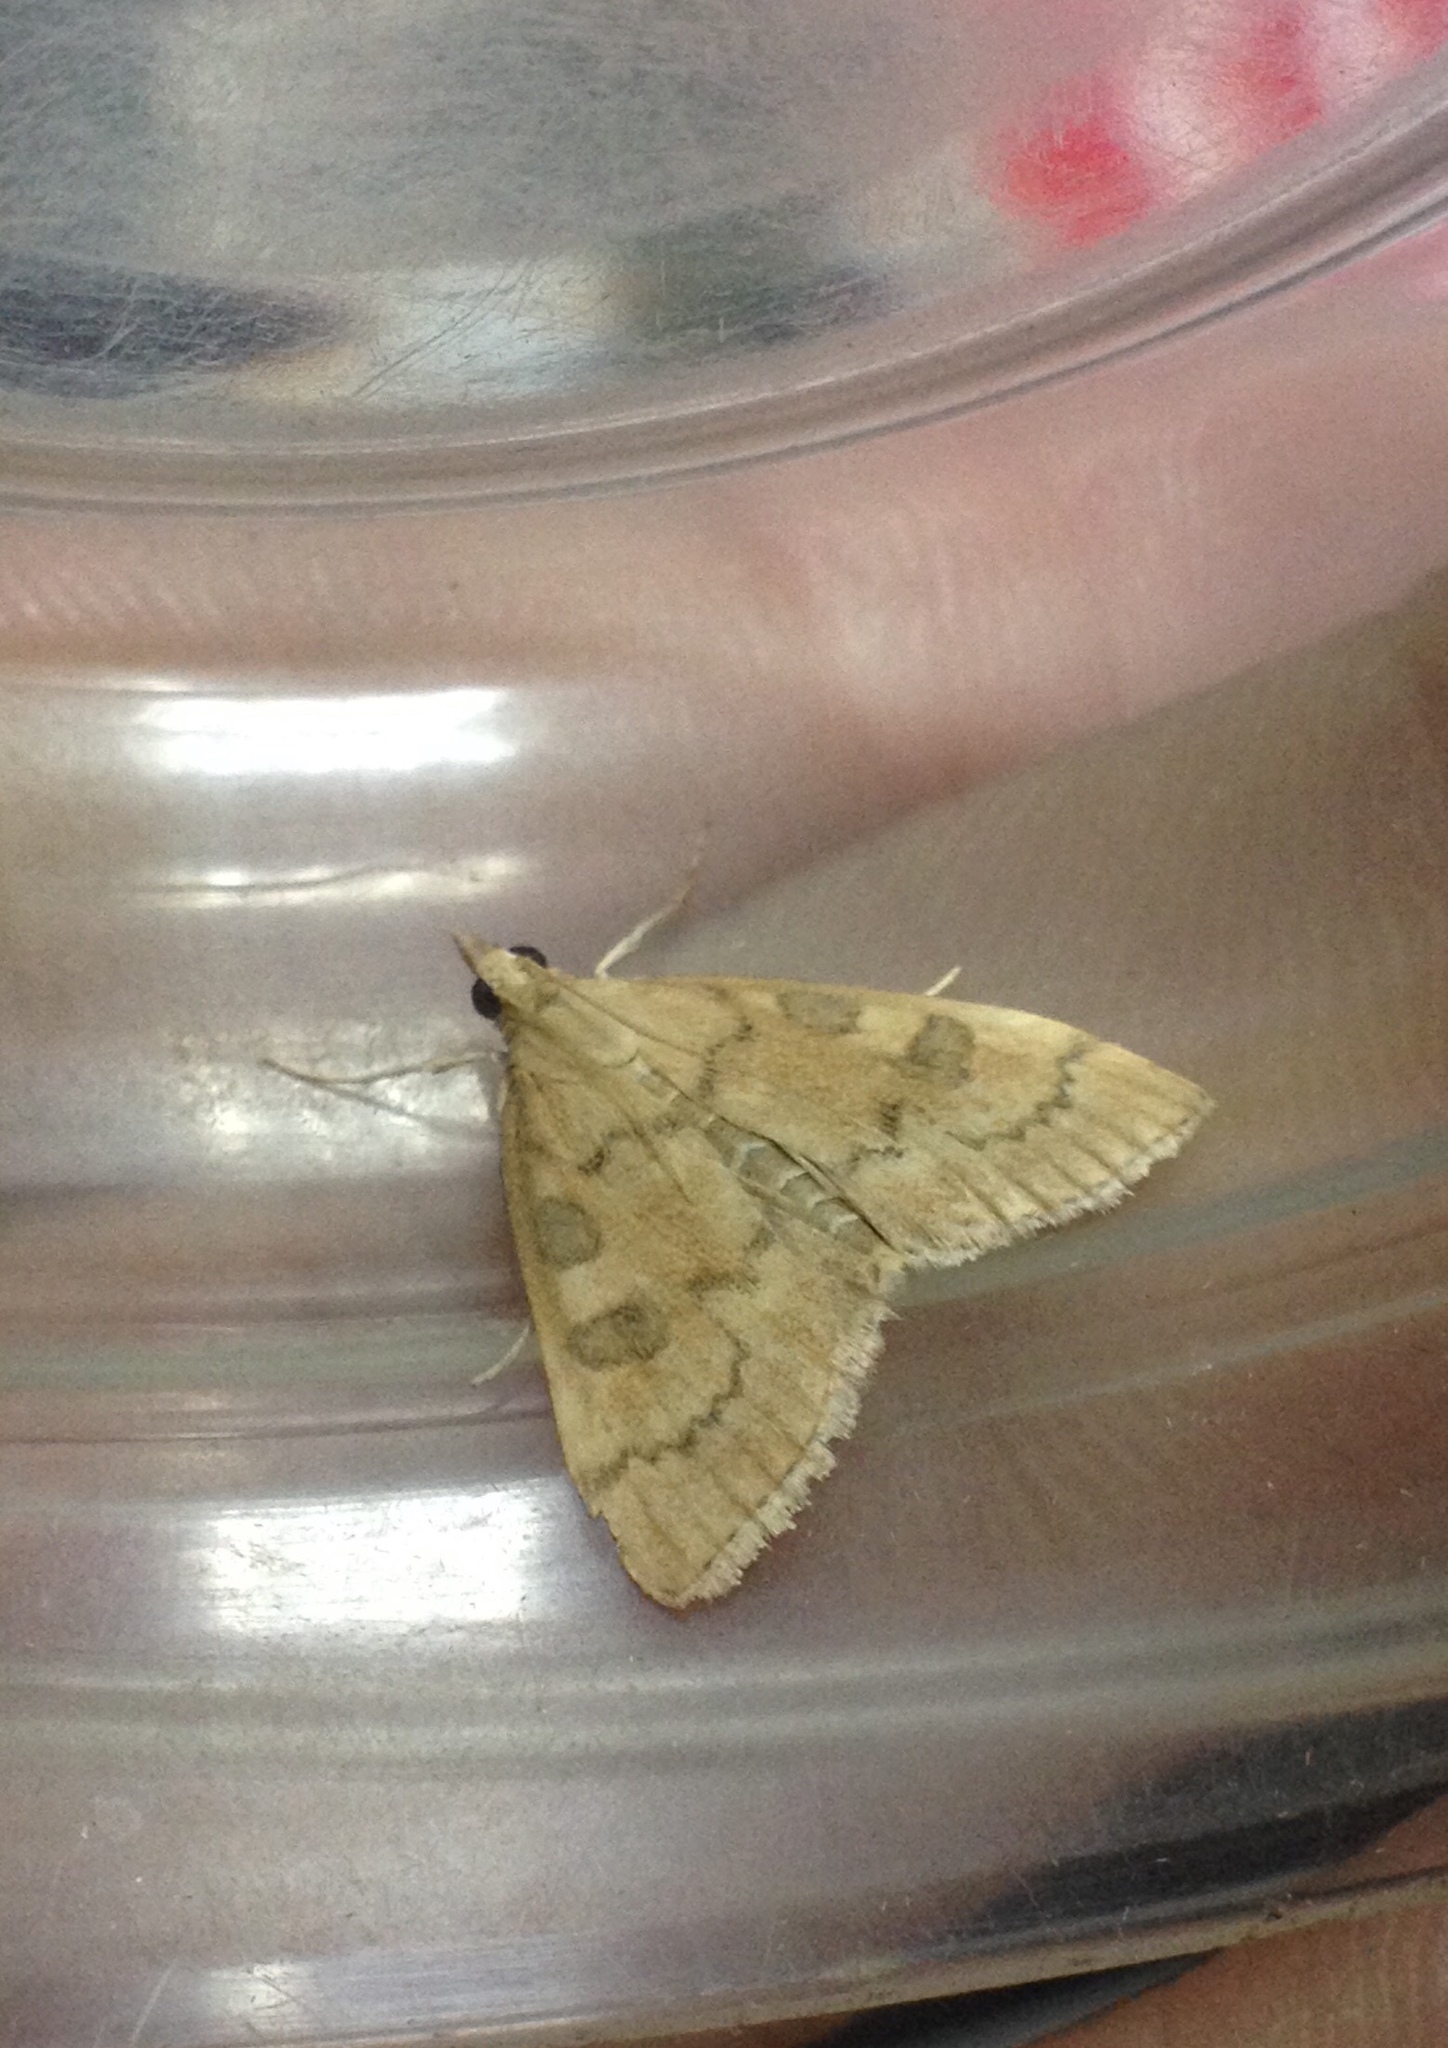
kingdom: Animalia
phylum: Arthropoda
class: Insecta
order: Lepidoptera
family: Crambidae
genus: Udea
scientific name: Udea fulvalis
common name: Fulvous pearl
